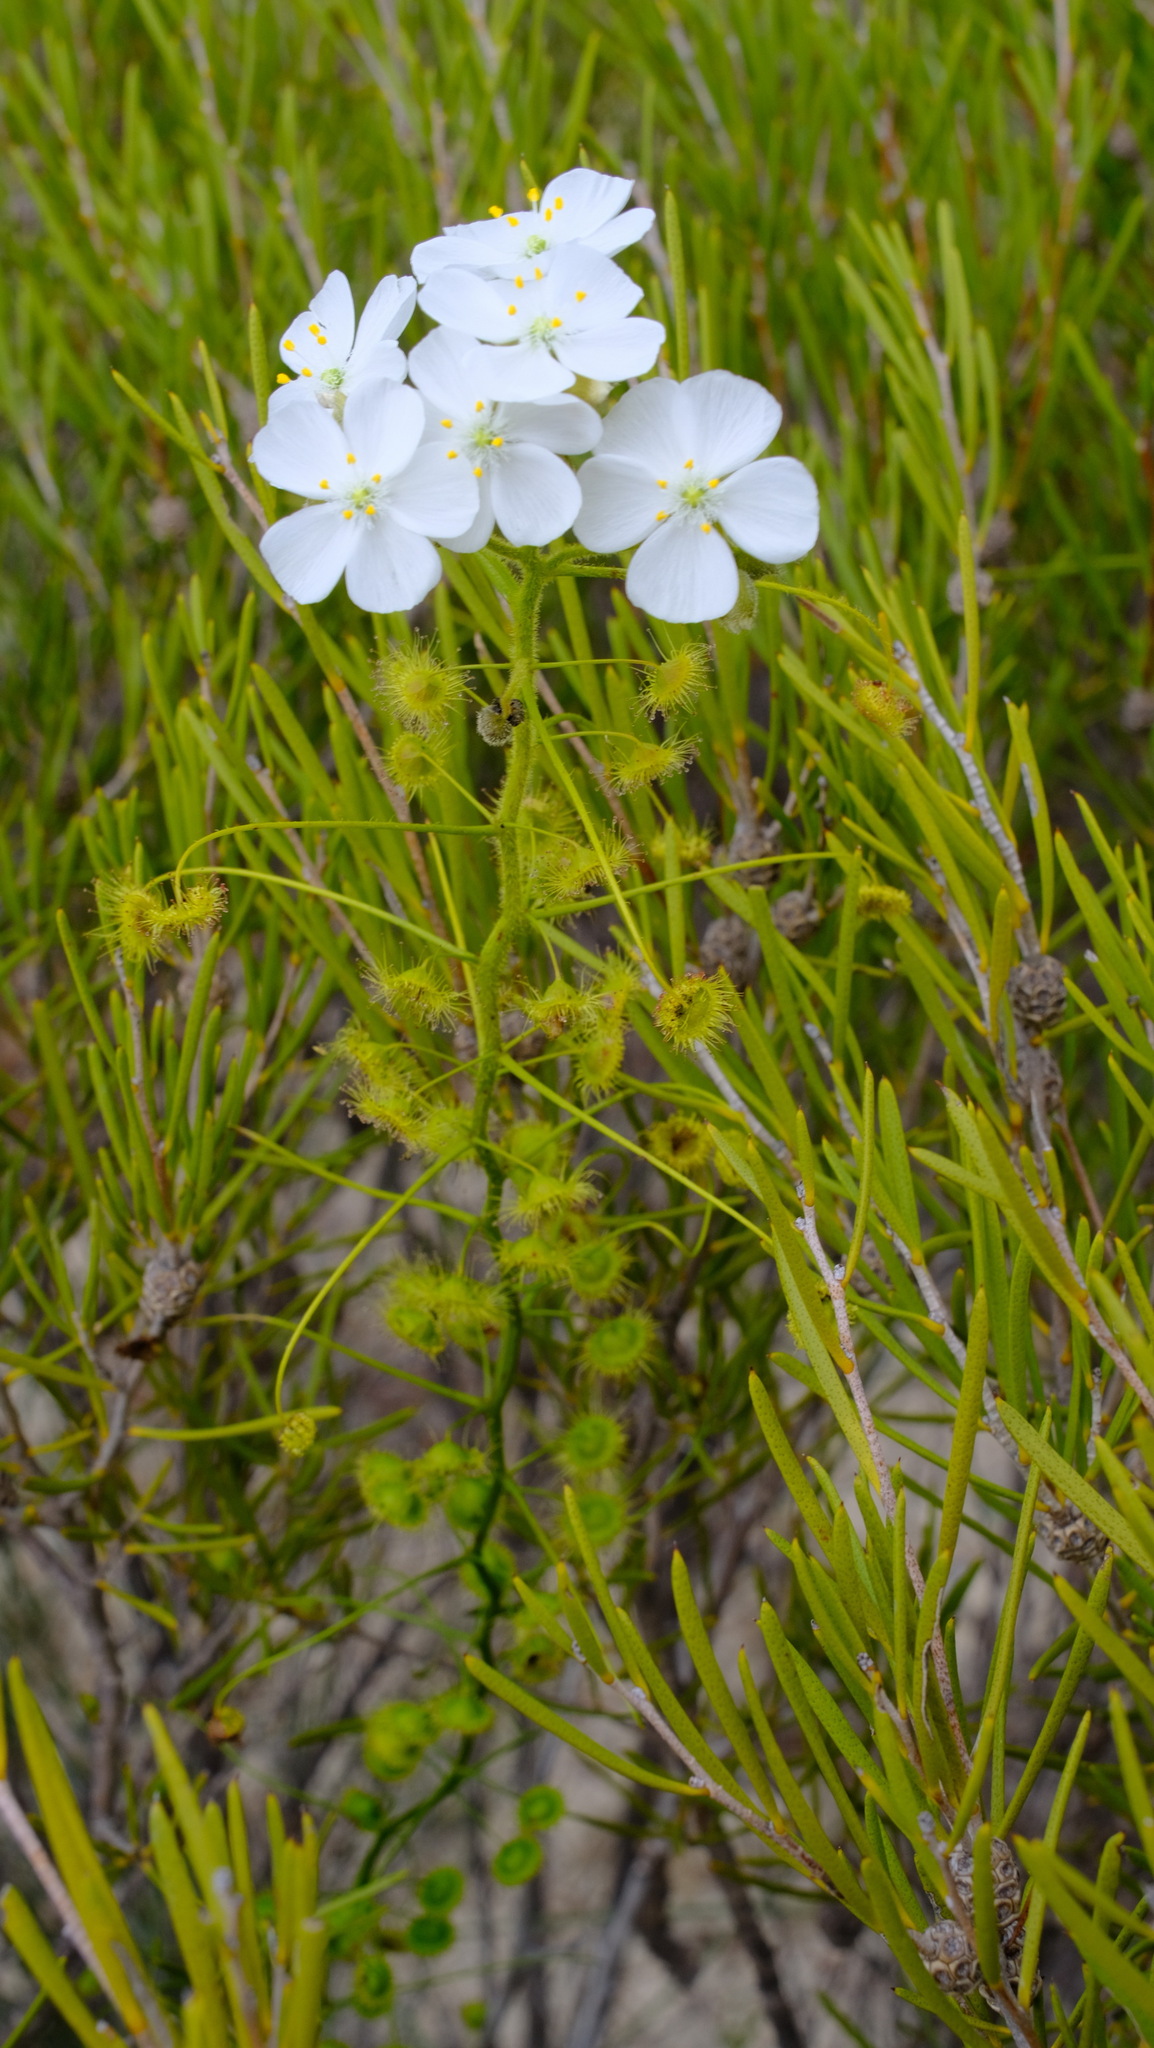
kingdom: Plantae
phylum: Tracheophyta
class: Magnoliopsida
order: Caryophyllales
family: Droseraceae
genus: Drosera
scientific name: Drosera hirsuta
